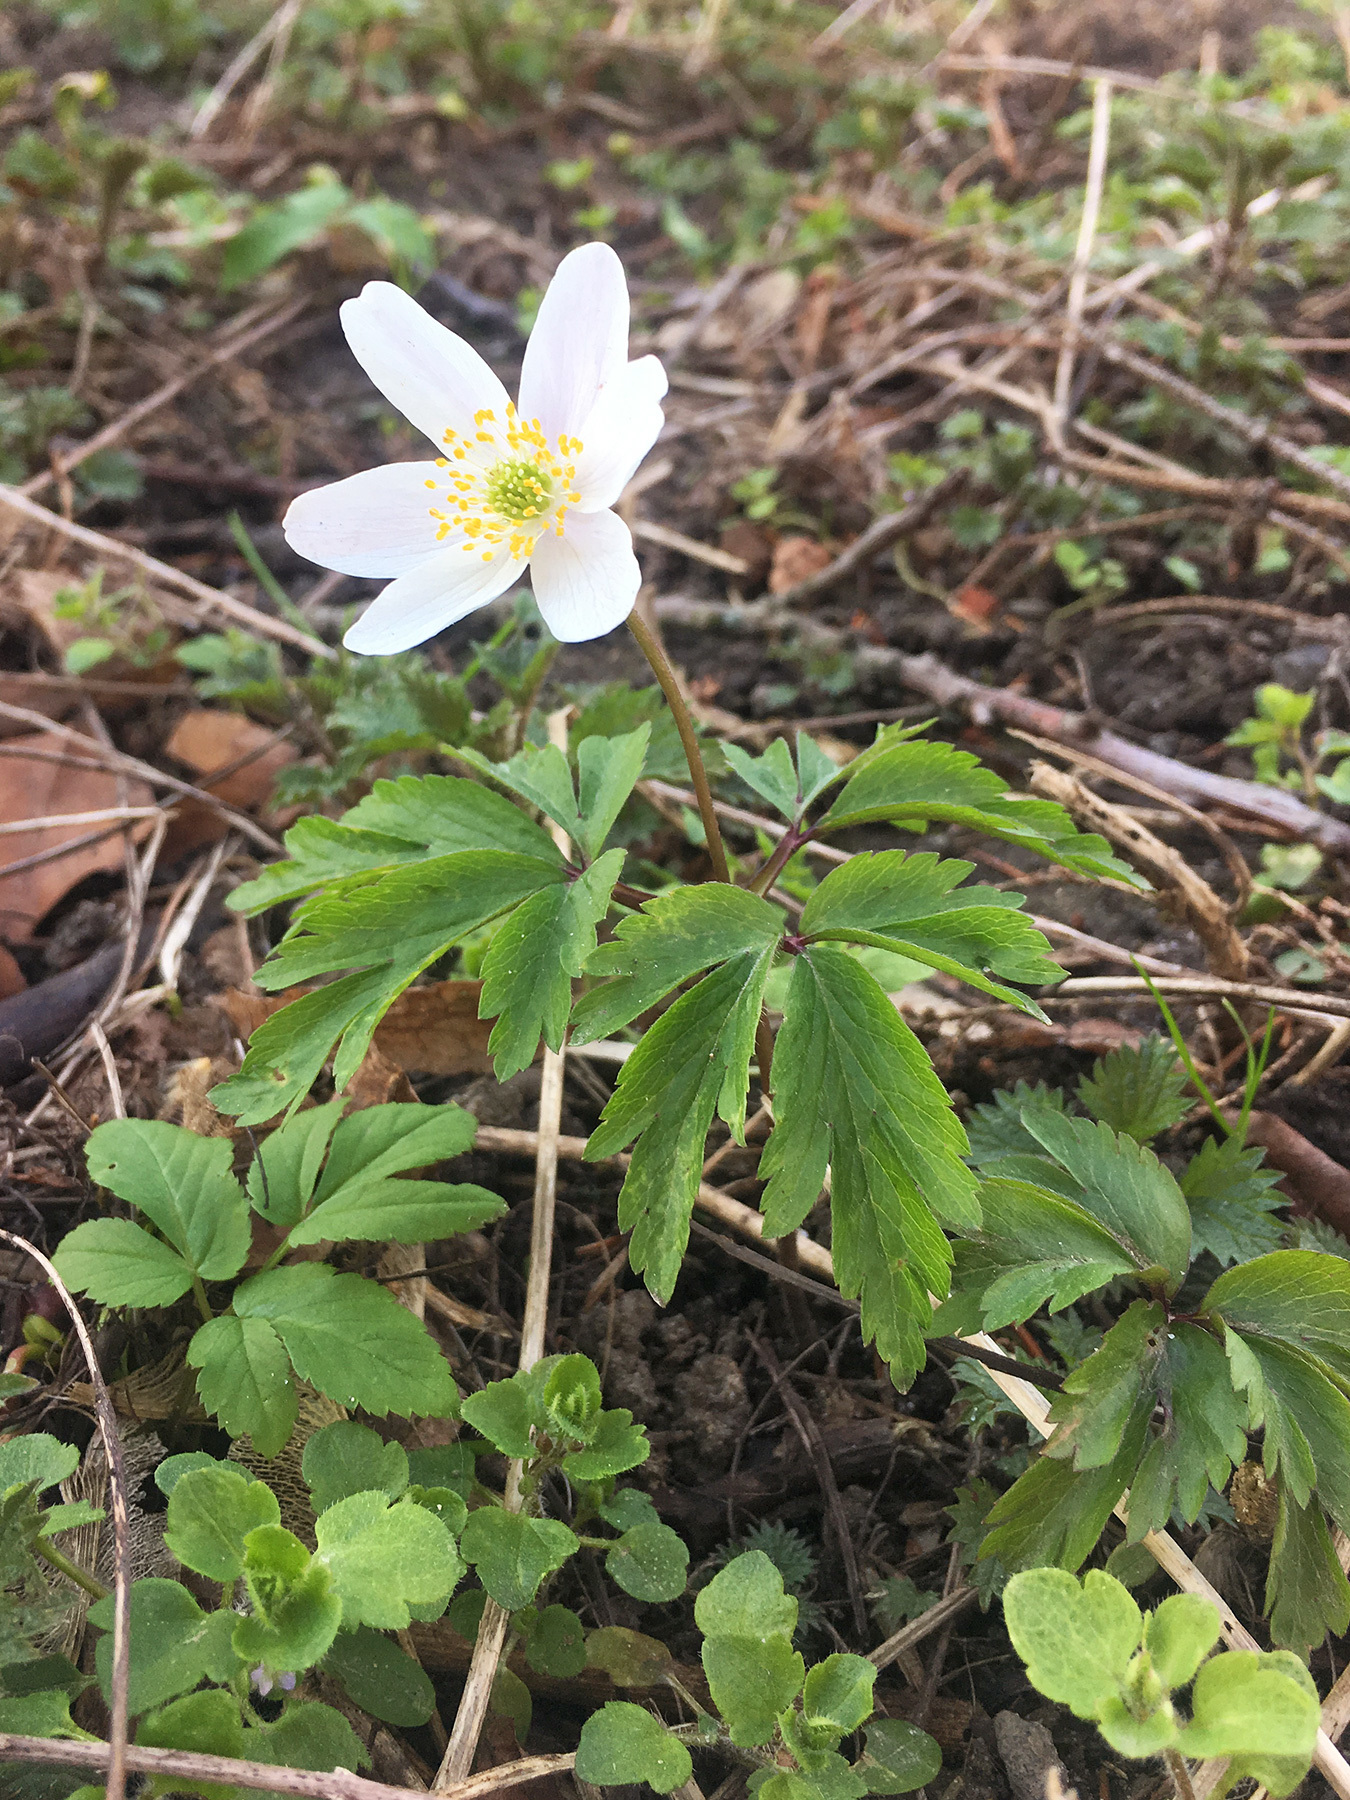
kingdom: Plantae
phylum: Tracheophyta
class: Magnoliopsida
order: Ranunculales
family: Ranunculaceae
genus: Anemone
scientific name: Anemone nemorosa
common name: Wood anemone
